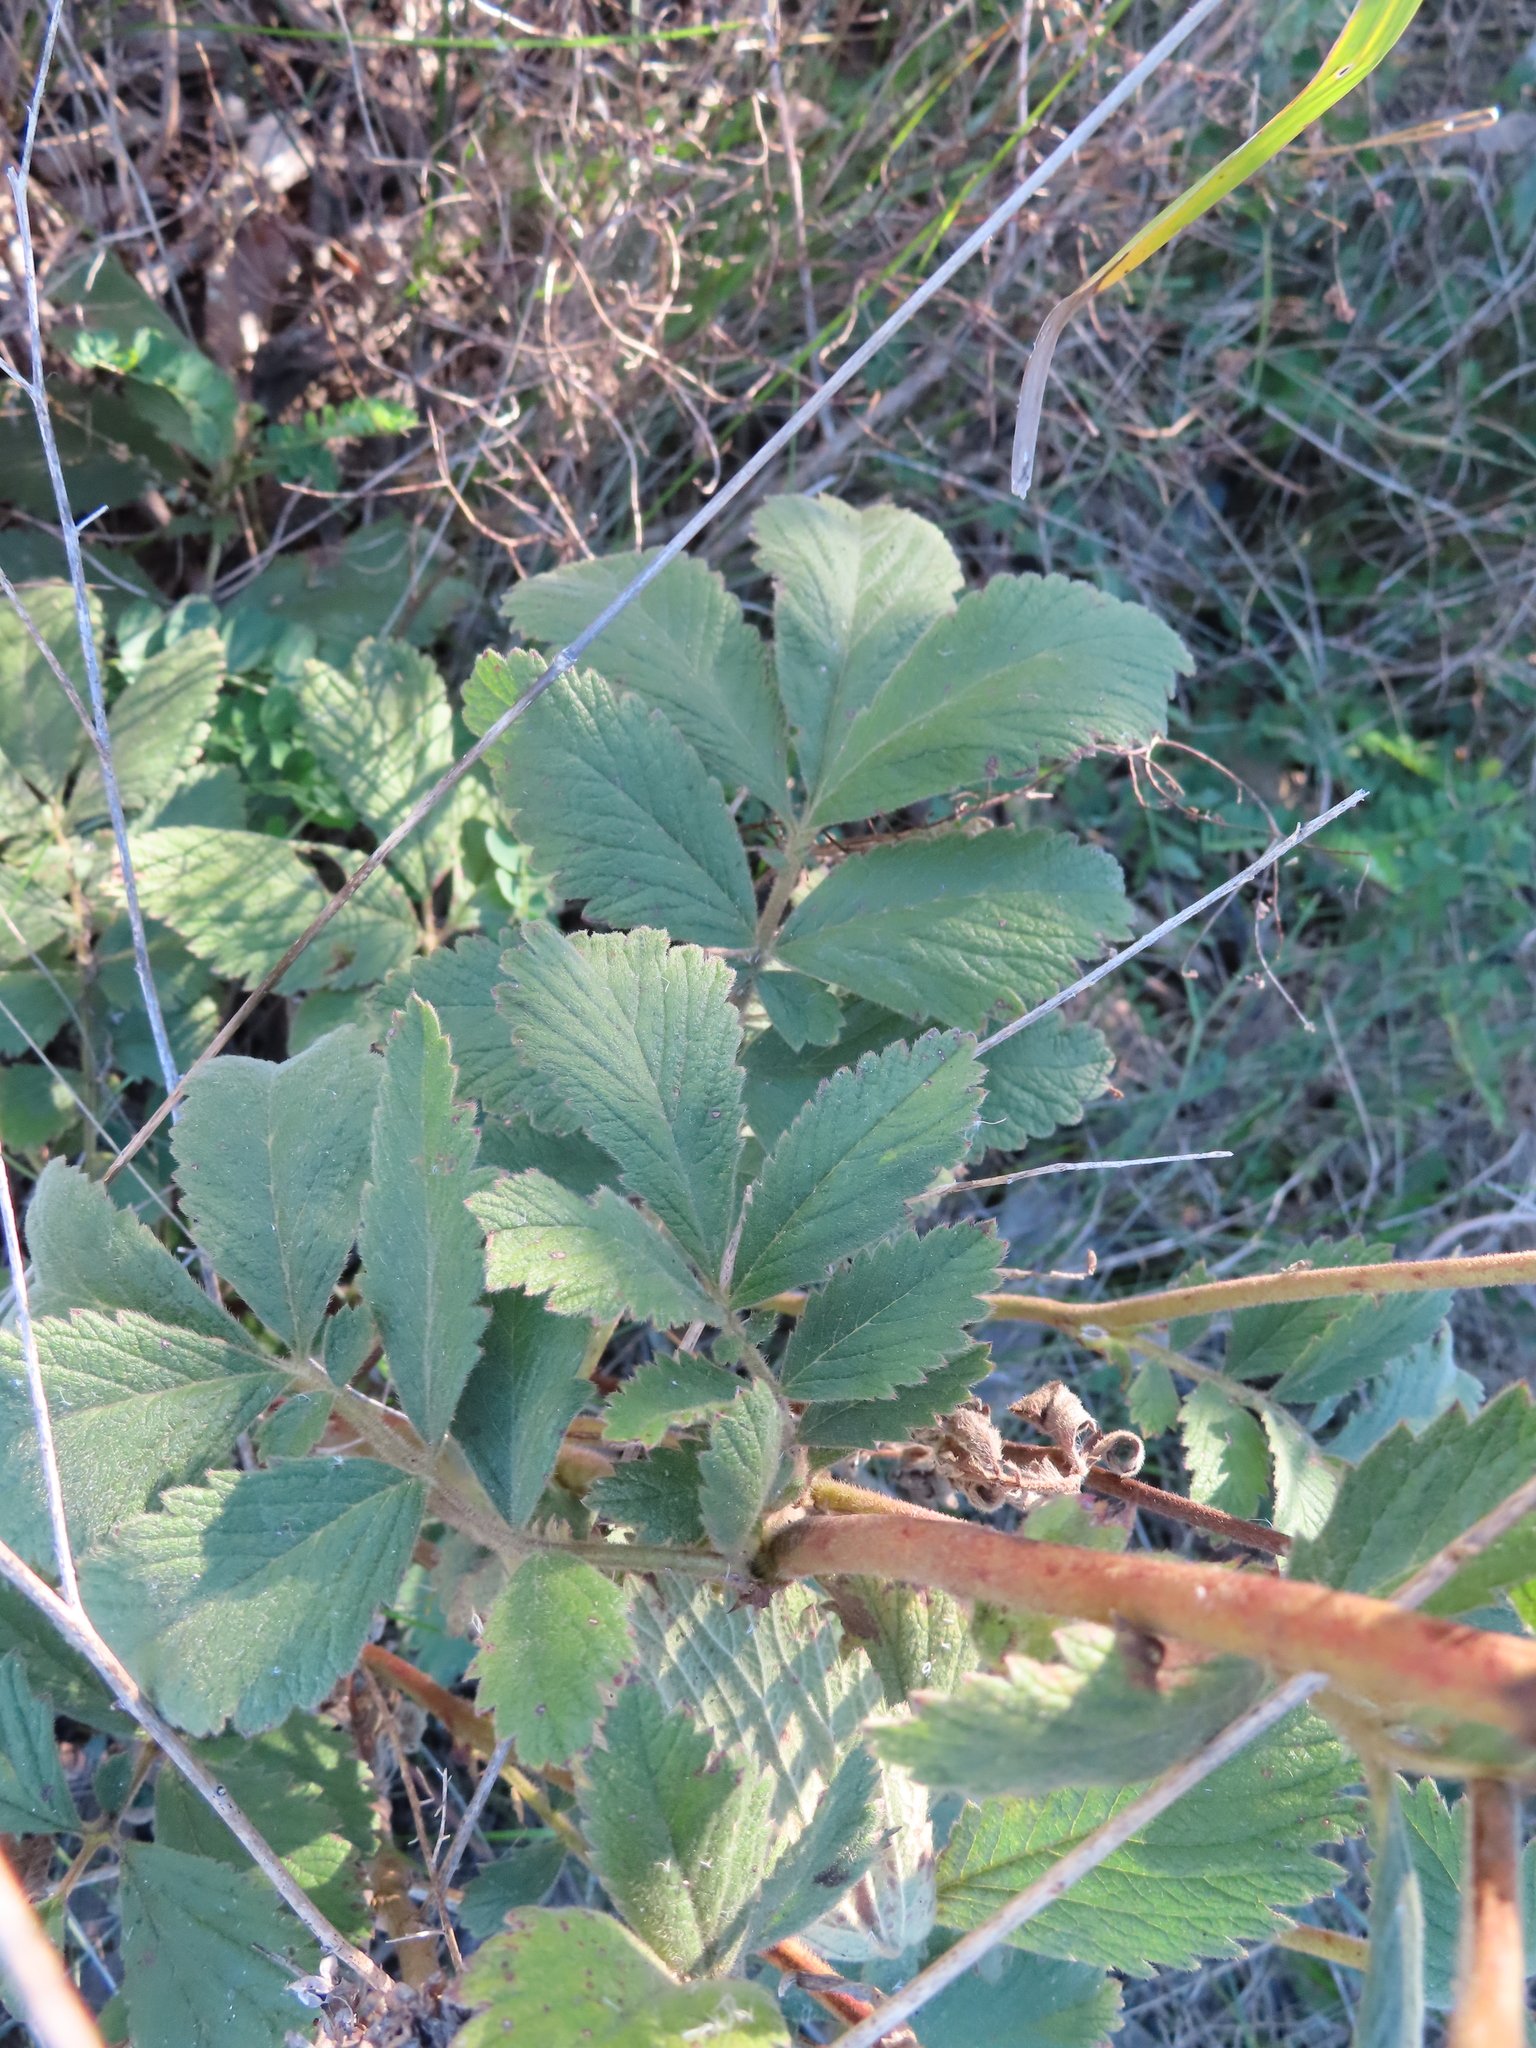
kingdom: Plantae
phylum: Tracheophyta
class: Magnoliopsida
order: Rosales
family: Rosaceae
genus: Drymocallis
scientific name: Drymocallis arguta
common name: Tall cinquefoil
